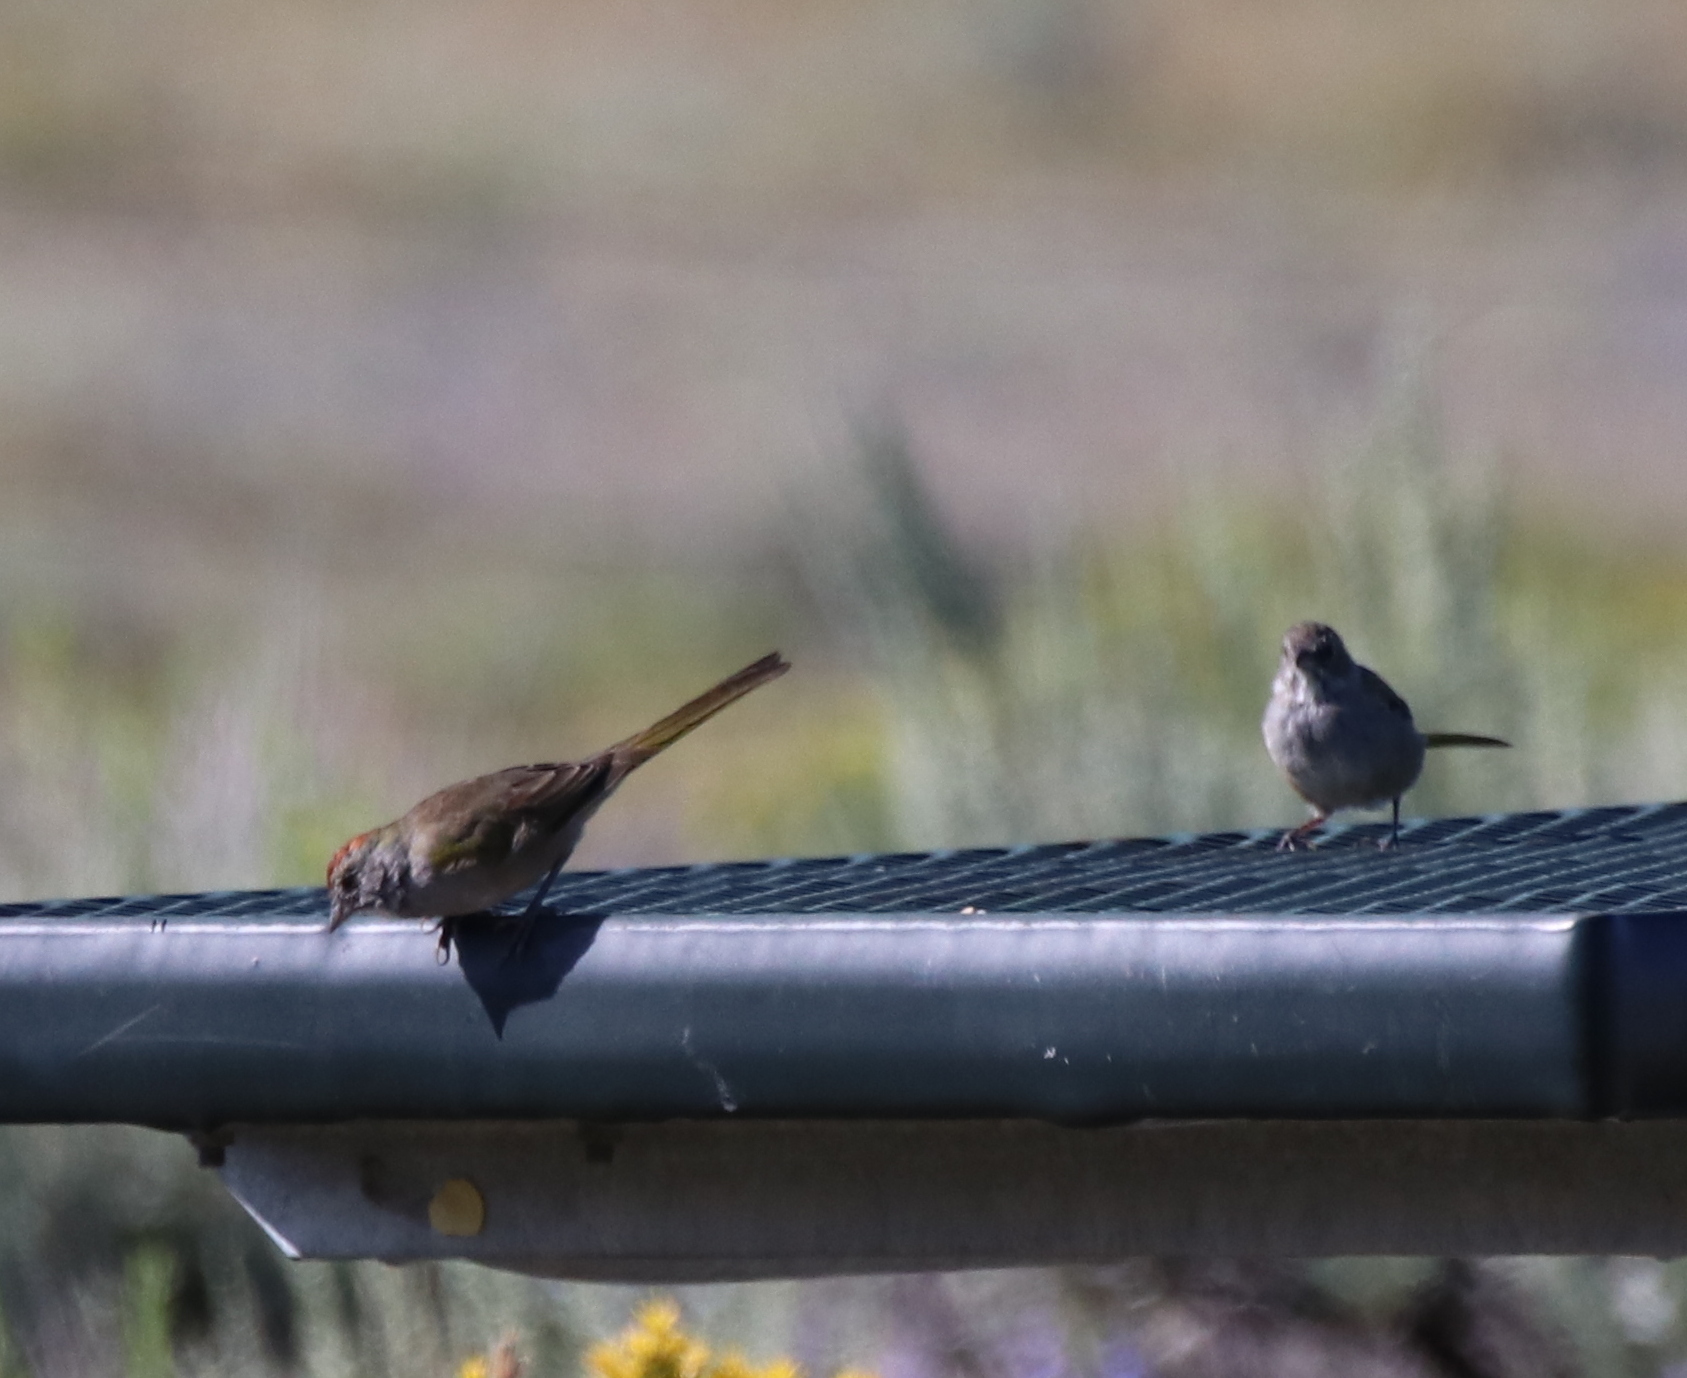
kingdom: Animalia
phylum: Chordata
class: Aves
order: Passeriformes
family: Passerellidae
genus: Pipilo
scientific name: Pipilo chlorurus
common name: Green-tailed towhee
